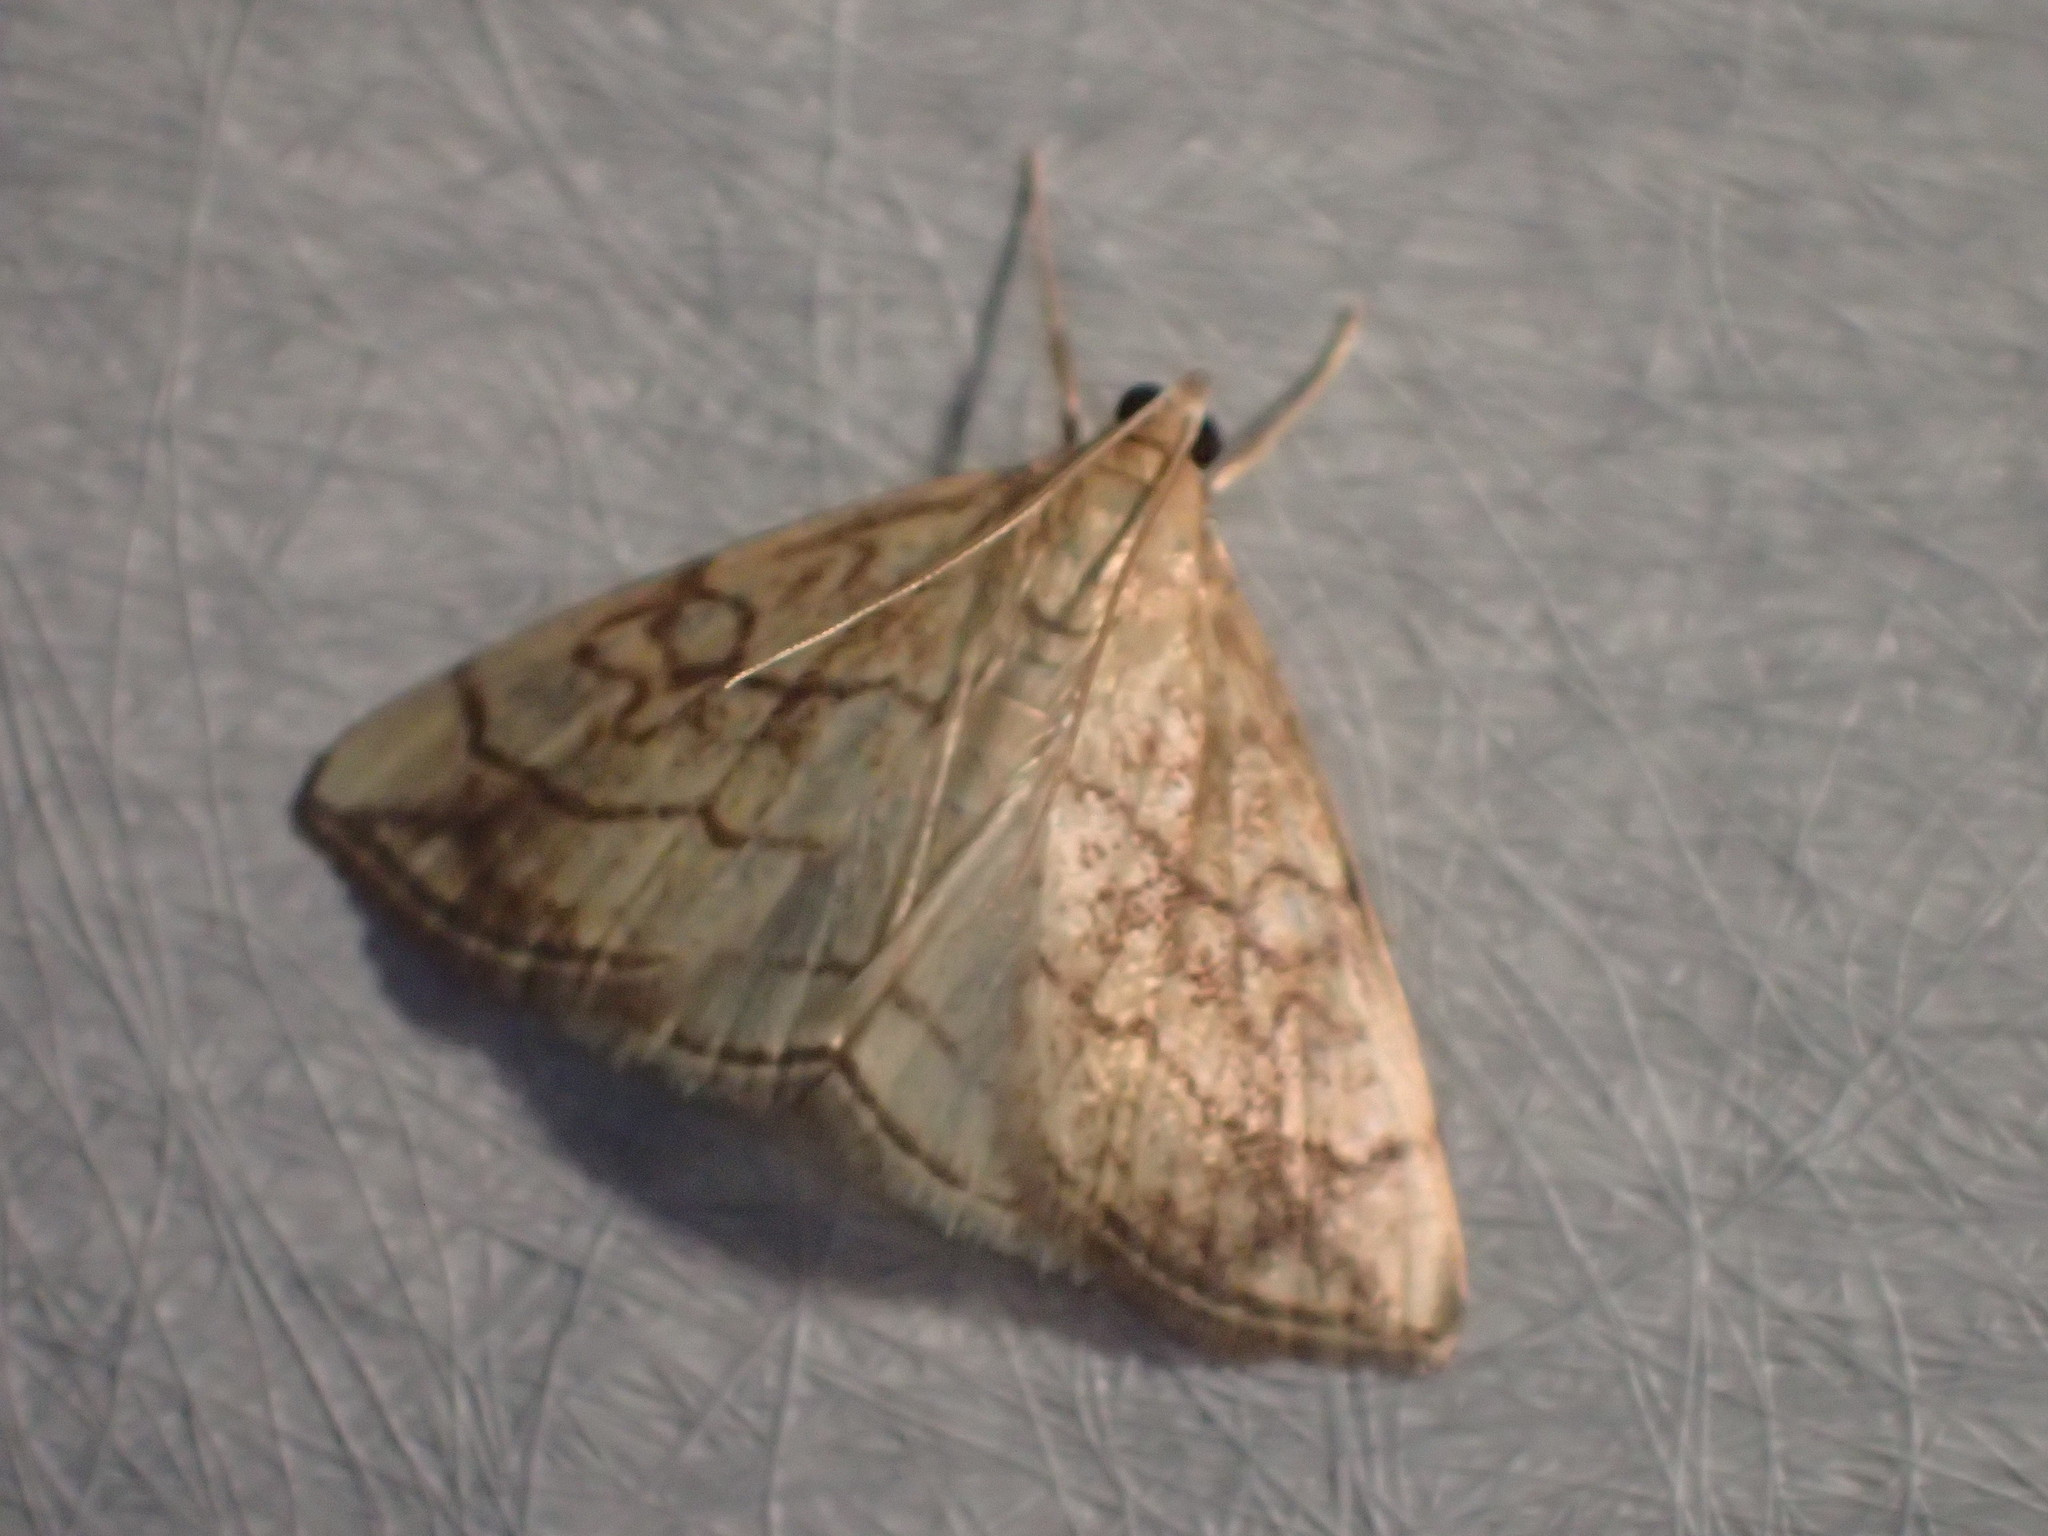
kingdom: Animalia
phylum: Arthropoda
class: Insecta
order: Lepidoptera
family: Crambidae
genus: Evergestis
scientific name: Evergestis pallidata
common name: Chequered pearl
